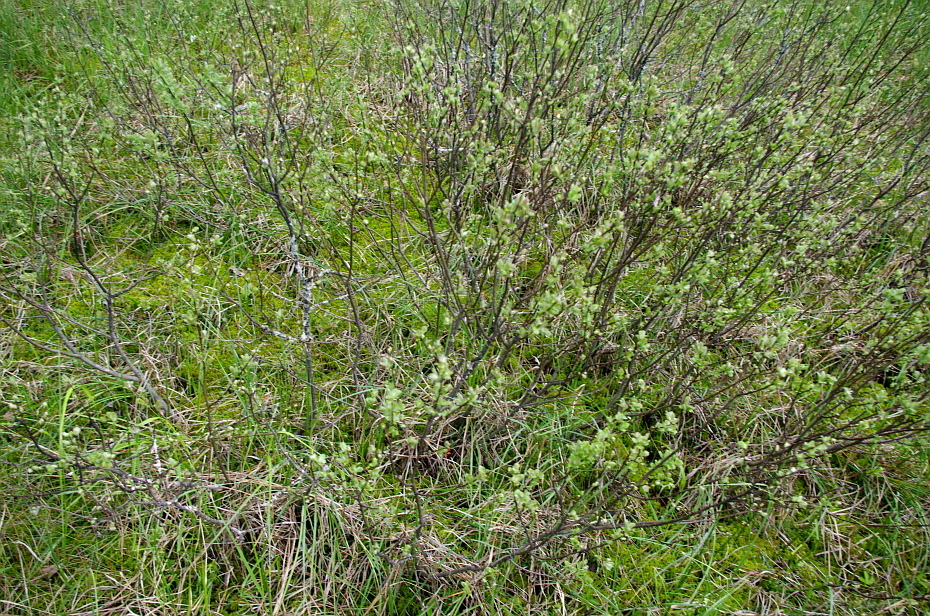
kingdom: Plantae
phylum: Tracheophyta
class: Magnoliopsida
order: Malpighiales
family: Salicaceae
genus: Salix
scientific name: Salix aurita
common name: Eared willow
